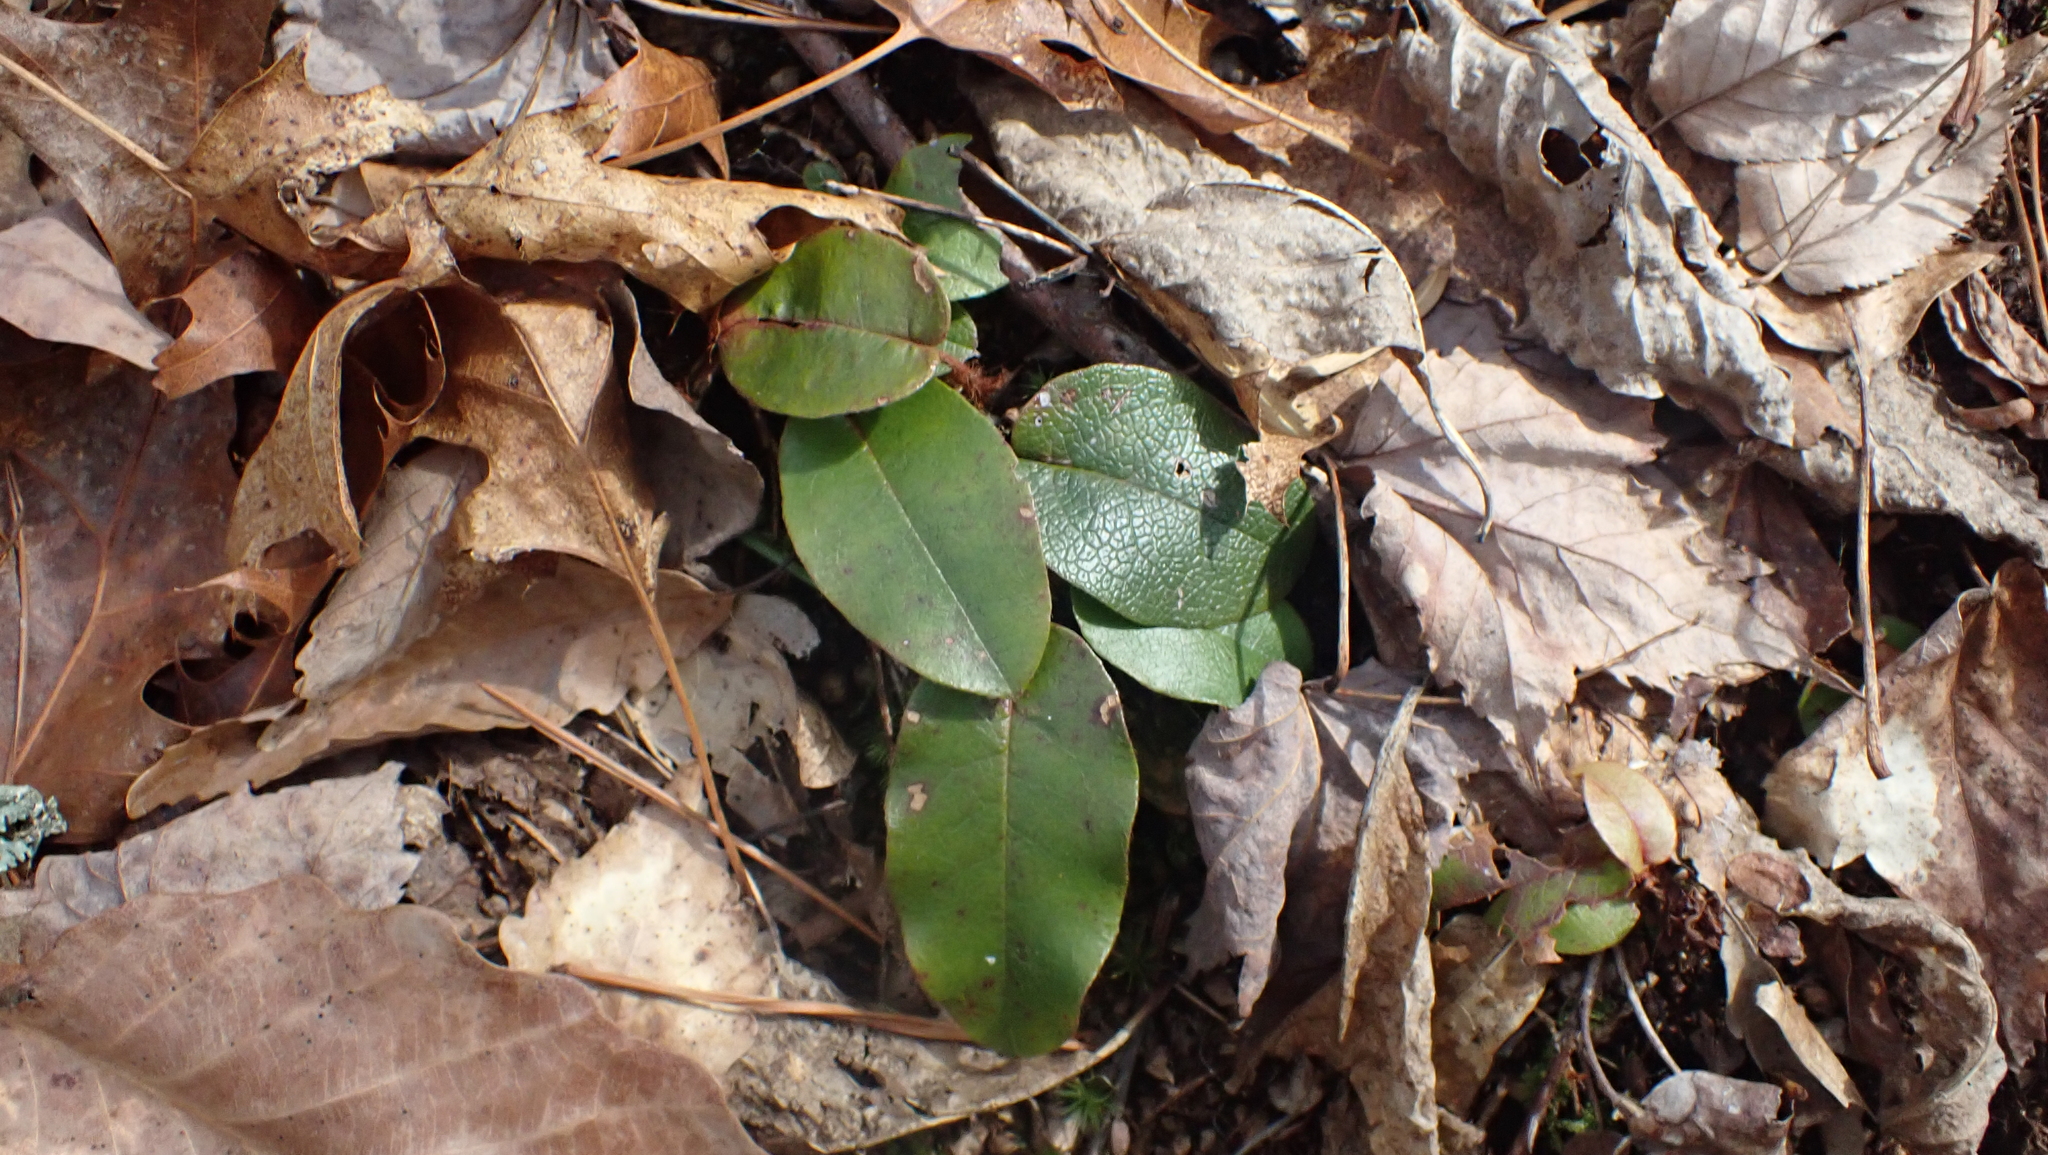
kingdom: Plantae
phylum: Tracheophyta
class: Magnoliopsida
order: Ericales
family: Ericaceae
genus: Epigaea
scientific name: Epigaea repens
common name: Gravelroot
